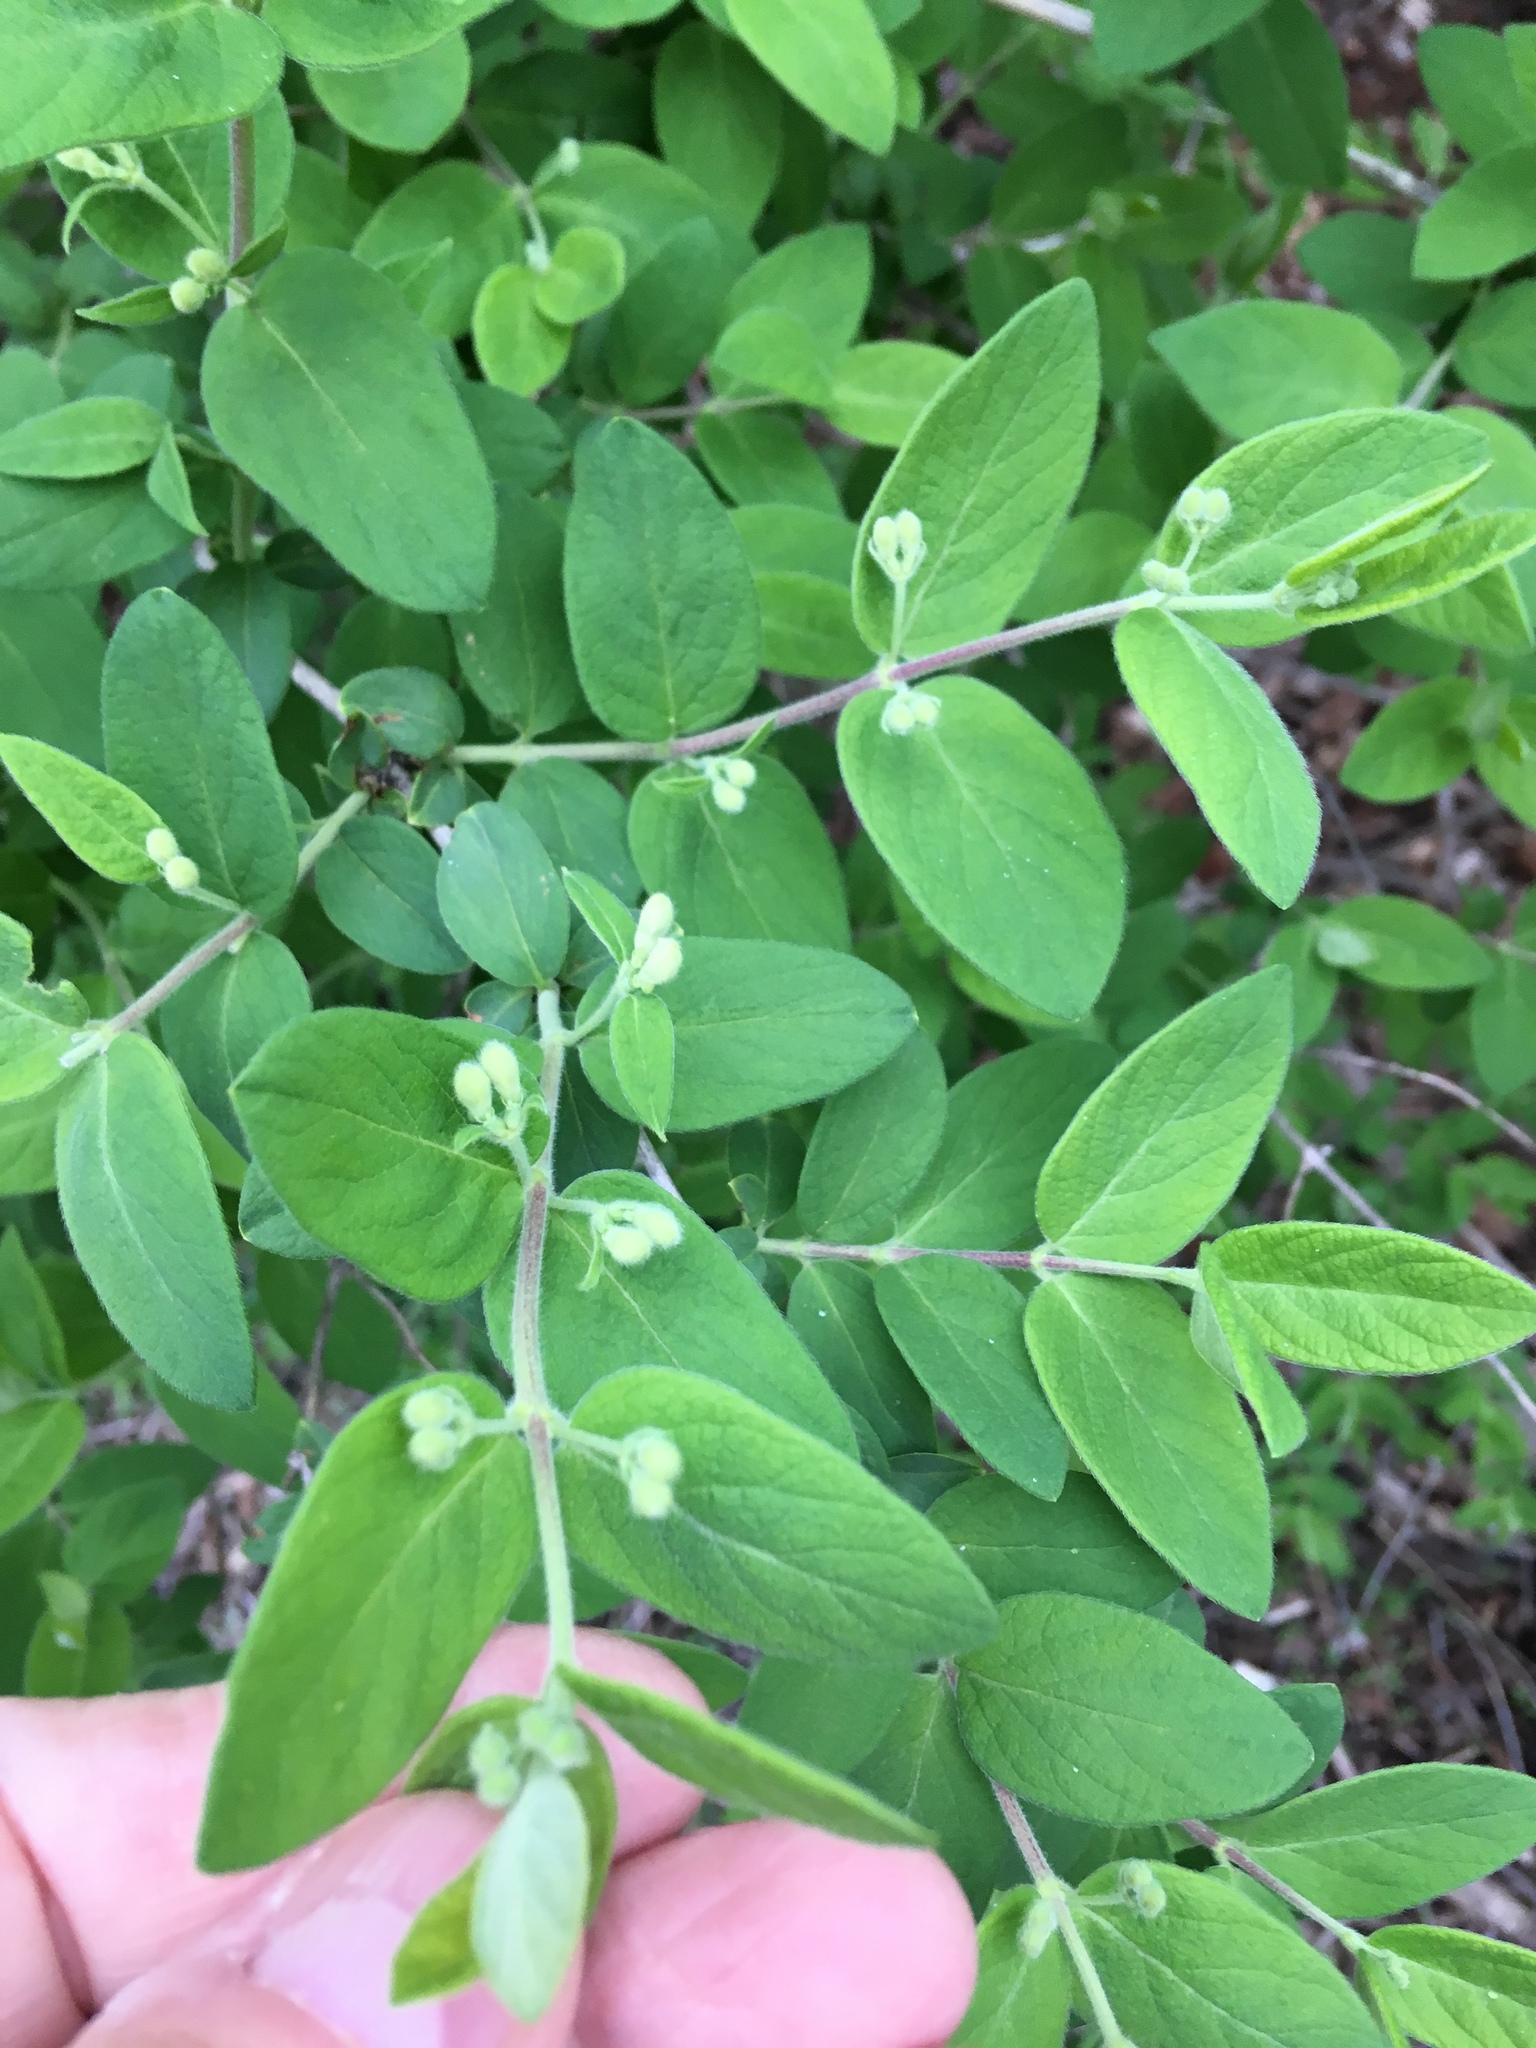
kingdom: Plantae
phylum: Tracheophyta
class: Magnoliopsida
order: Dipsacales
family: Caprifoliaceae
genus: Lonicera
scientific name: Lonicera morrowii
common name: Morrow's honeysuckle
